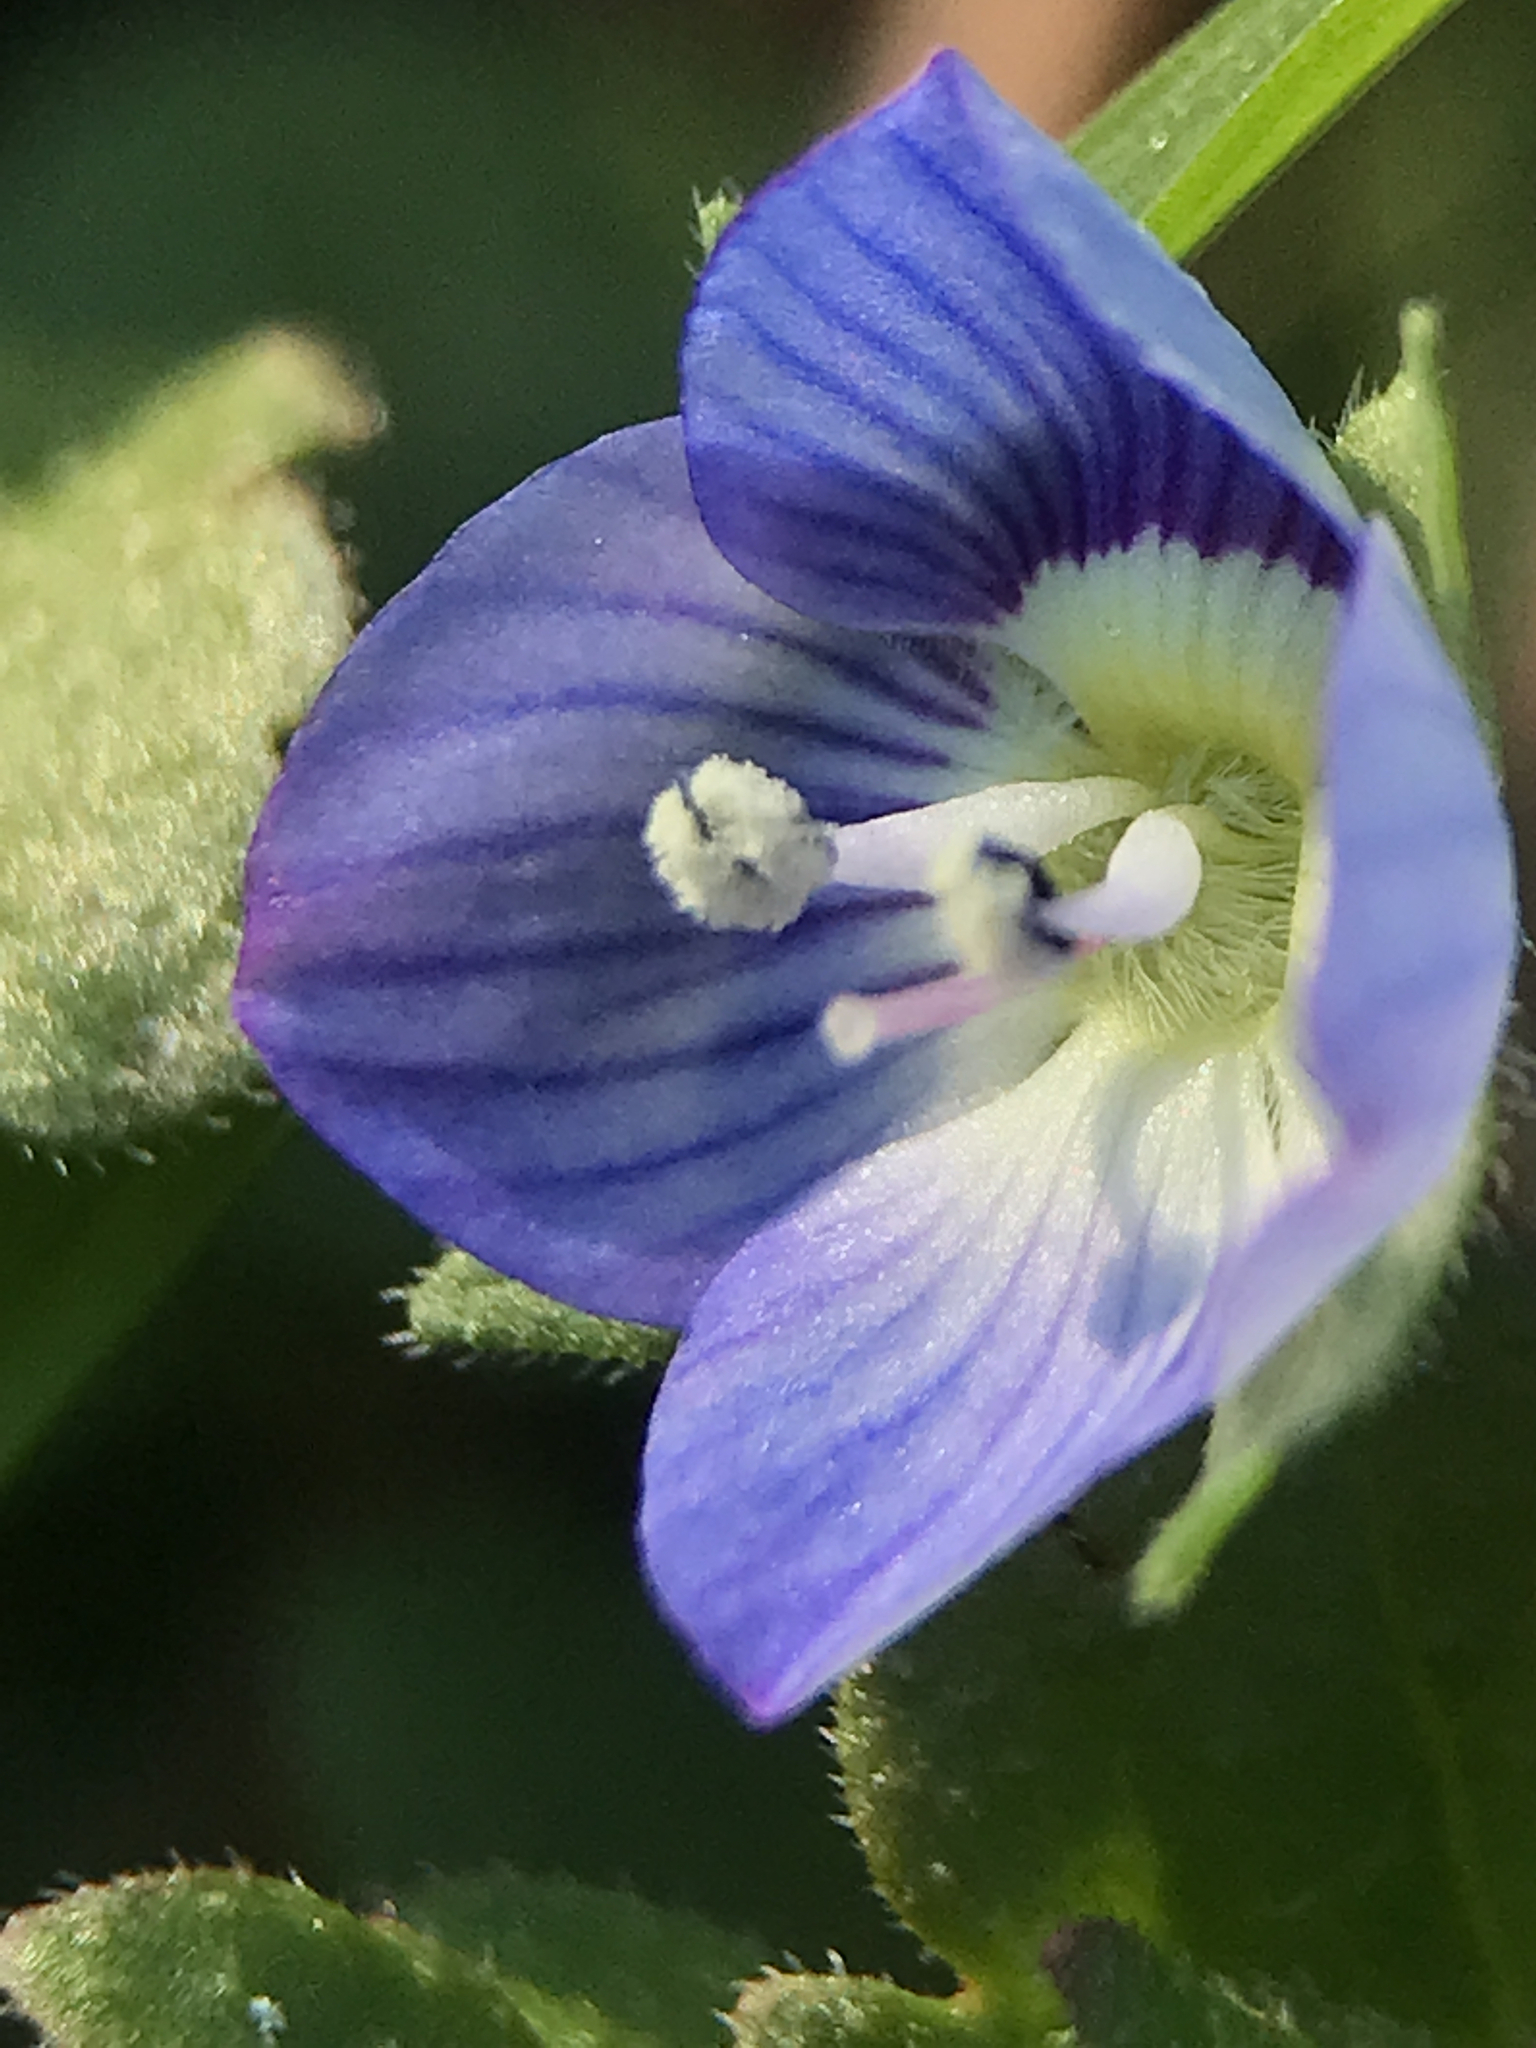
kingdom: Plantae
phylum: Tracheophyta
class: Magnoliopsida
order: Lamiales
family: Plantaginaceae
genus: Veronica
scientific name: Veronica persica
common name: Common field-speedwell
